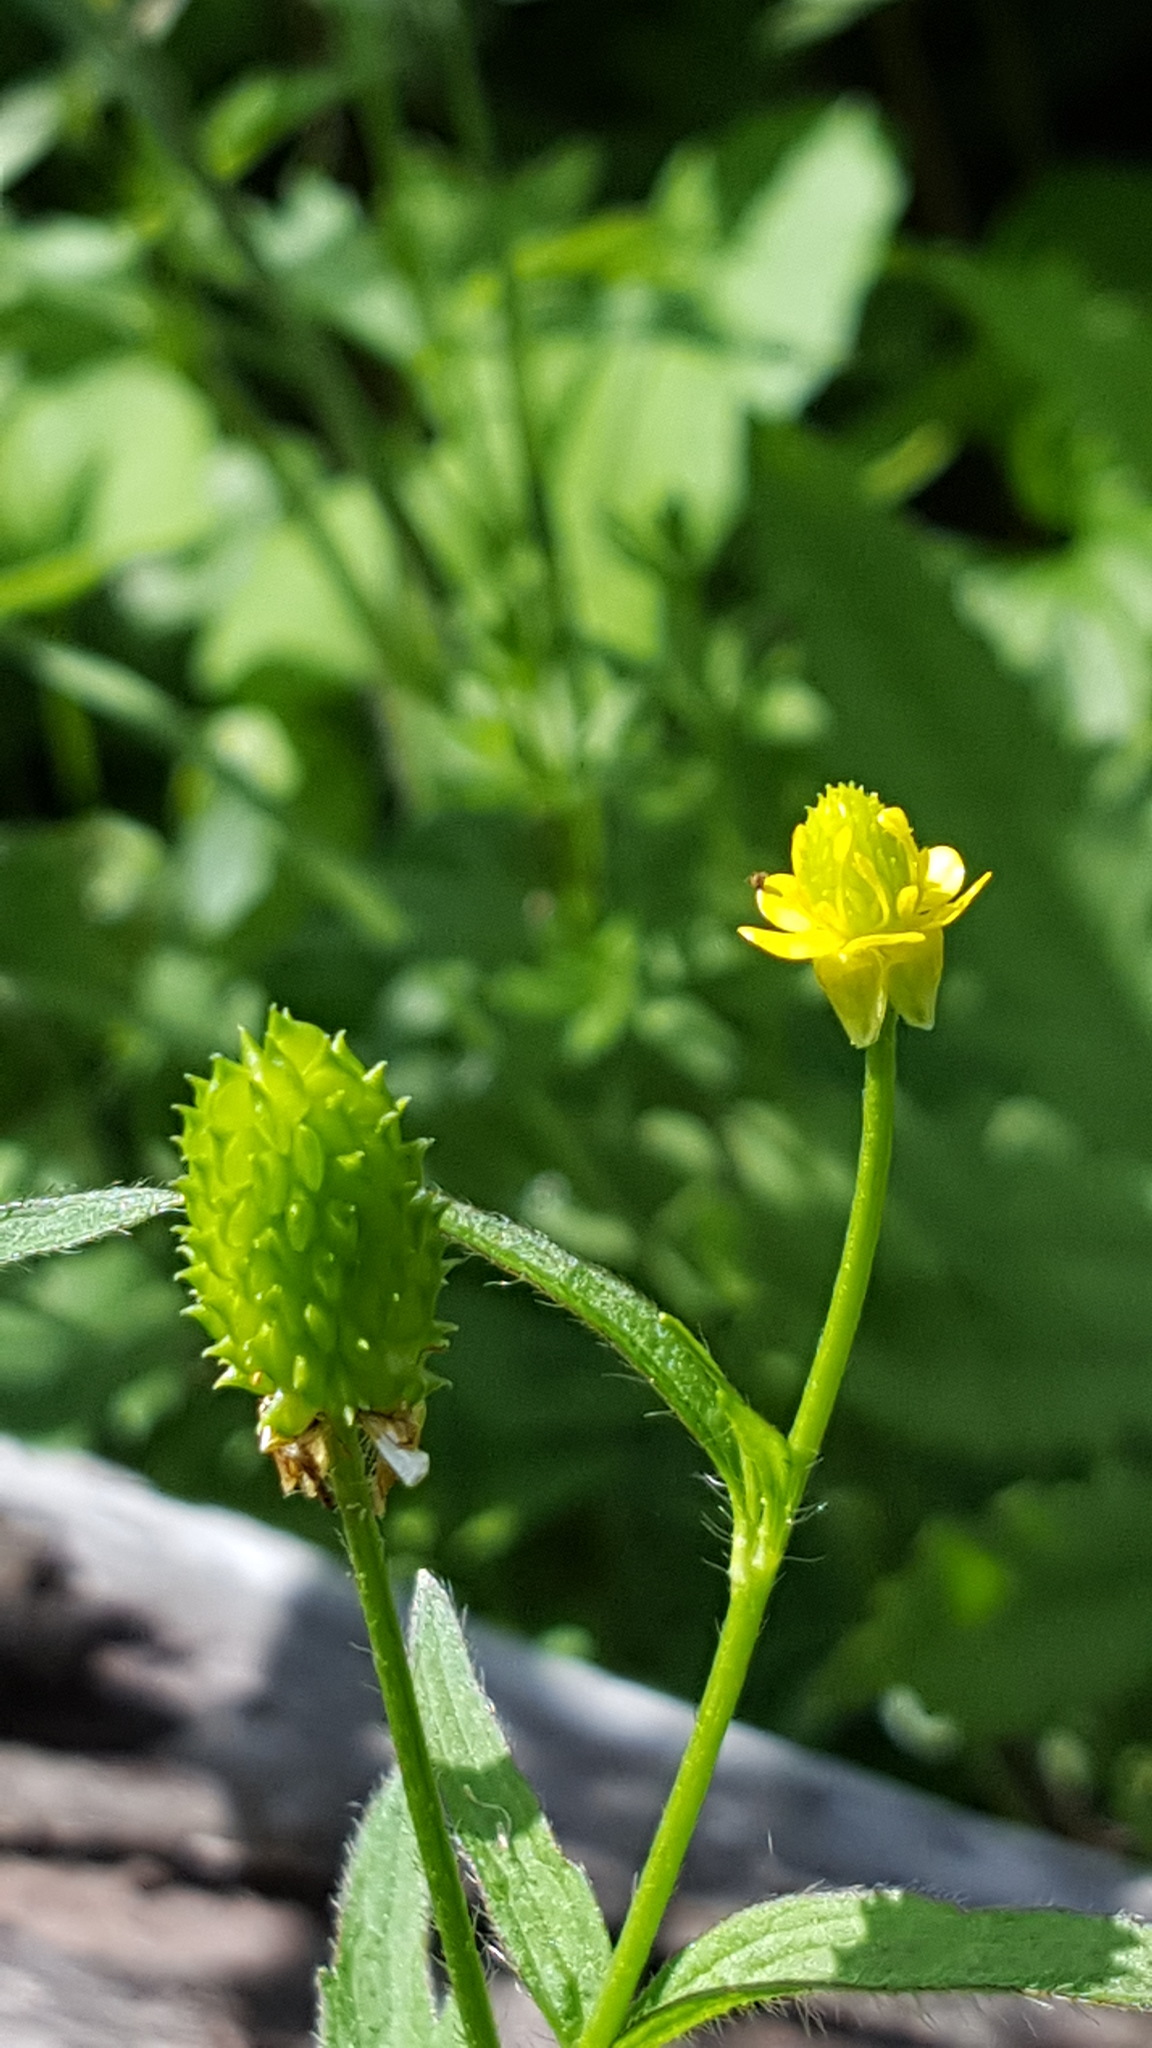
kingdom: Plantae
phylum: Tracheophyta
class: Magnoliopsida
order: Ranunculales
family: Ranunculaceae
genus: Ranunculus
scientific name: Ranunculus sceleratus
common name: Celery-leaved buttercup
